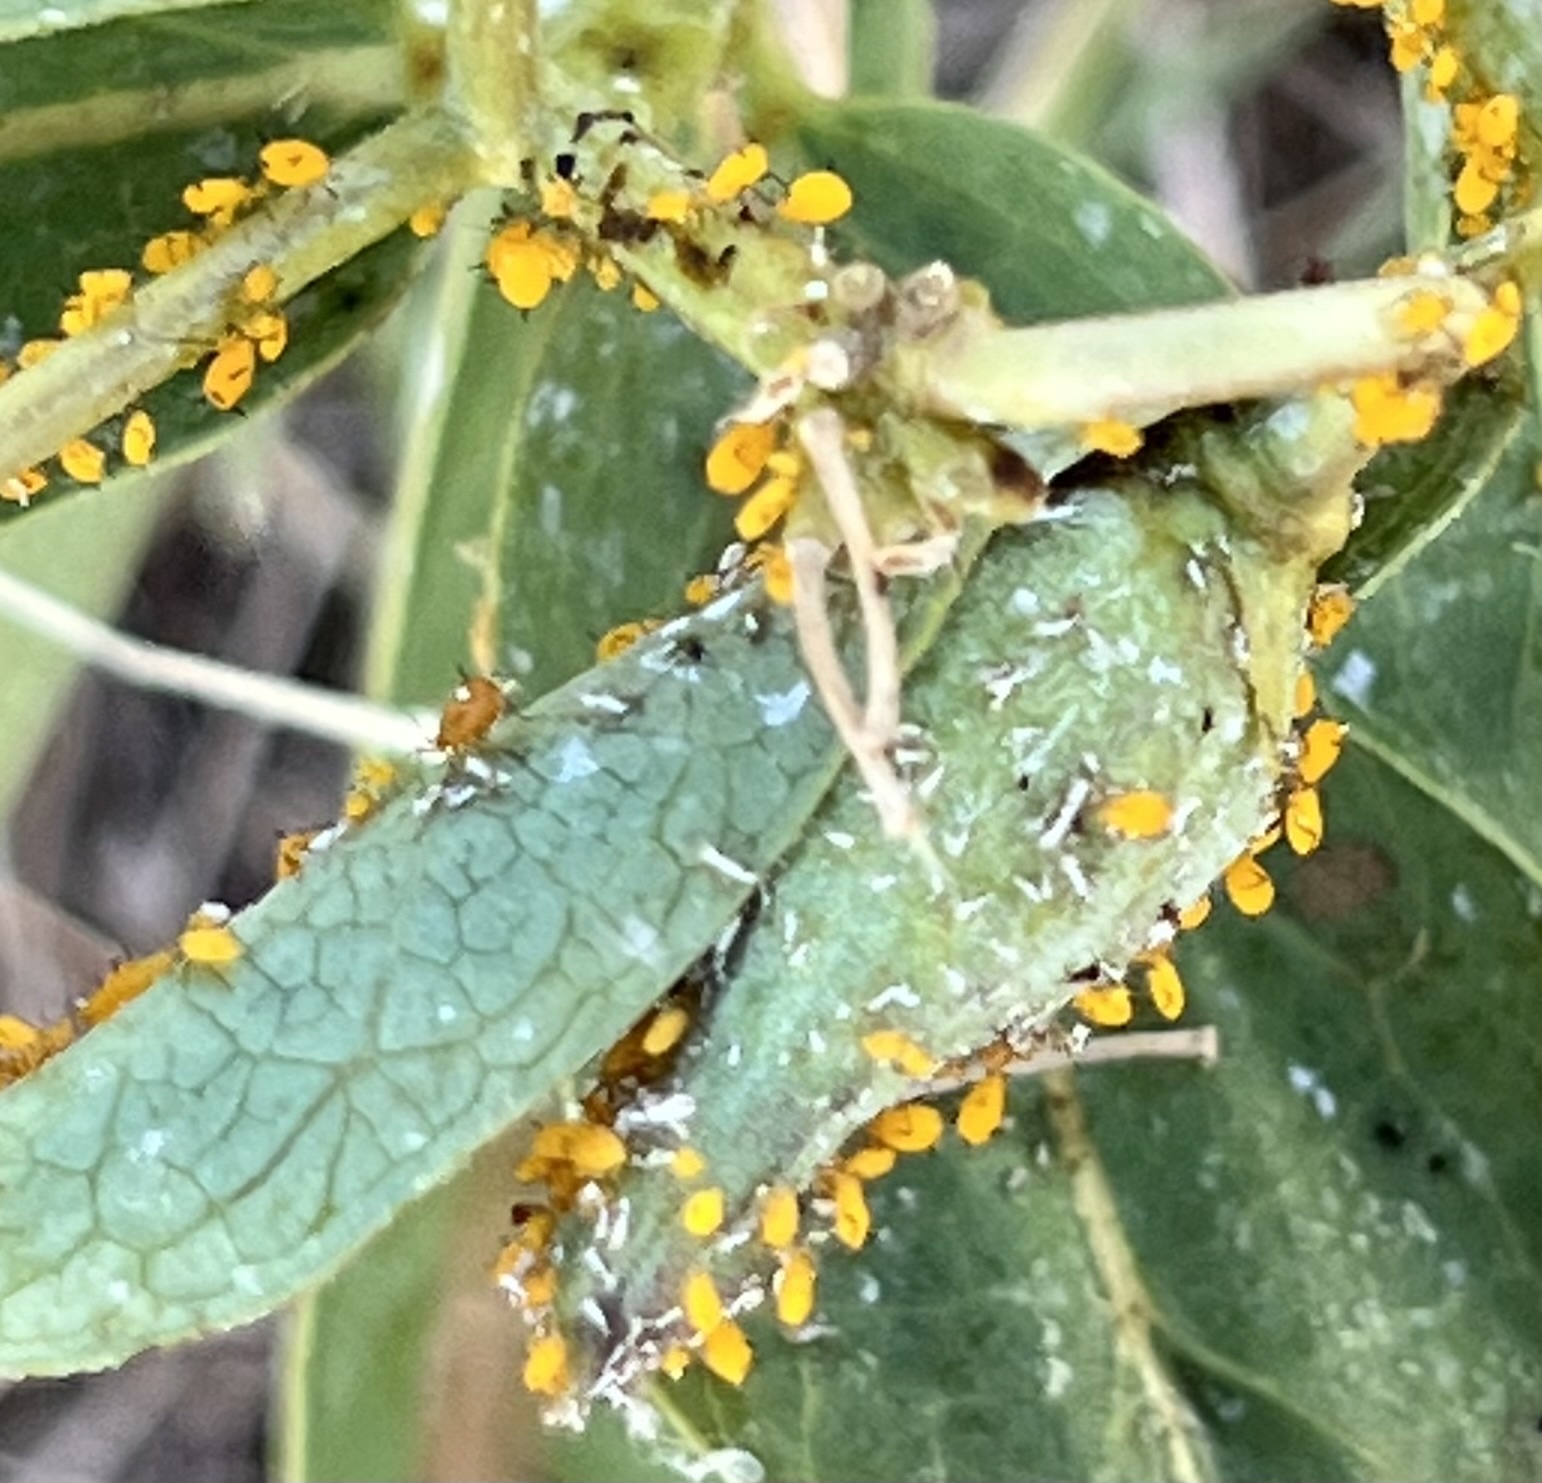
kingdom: Animalia
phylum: Arthropoda
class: Insecta
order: Hemiptera
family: Aphididae
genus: Aphis
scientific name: Aphis nerii
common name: Oleander aphid
